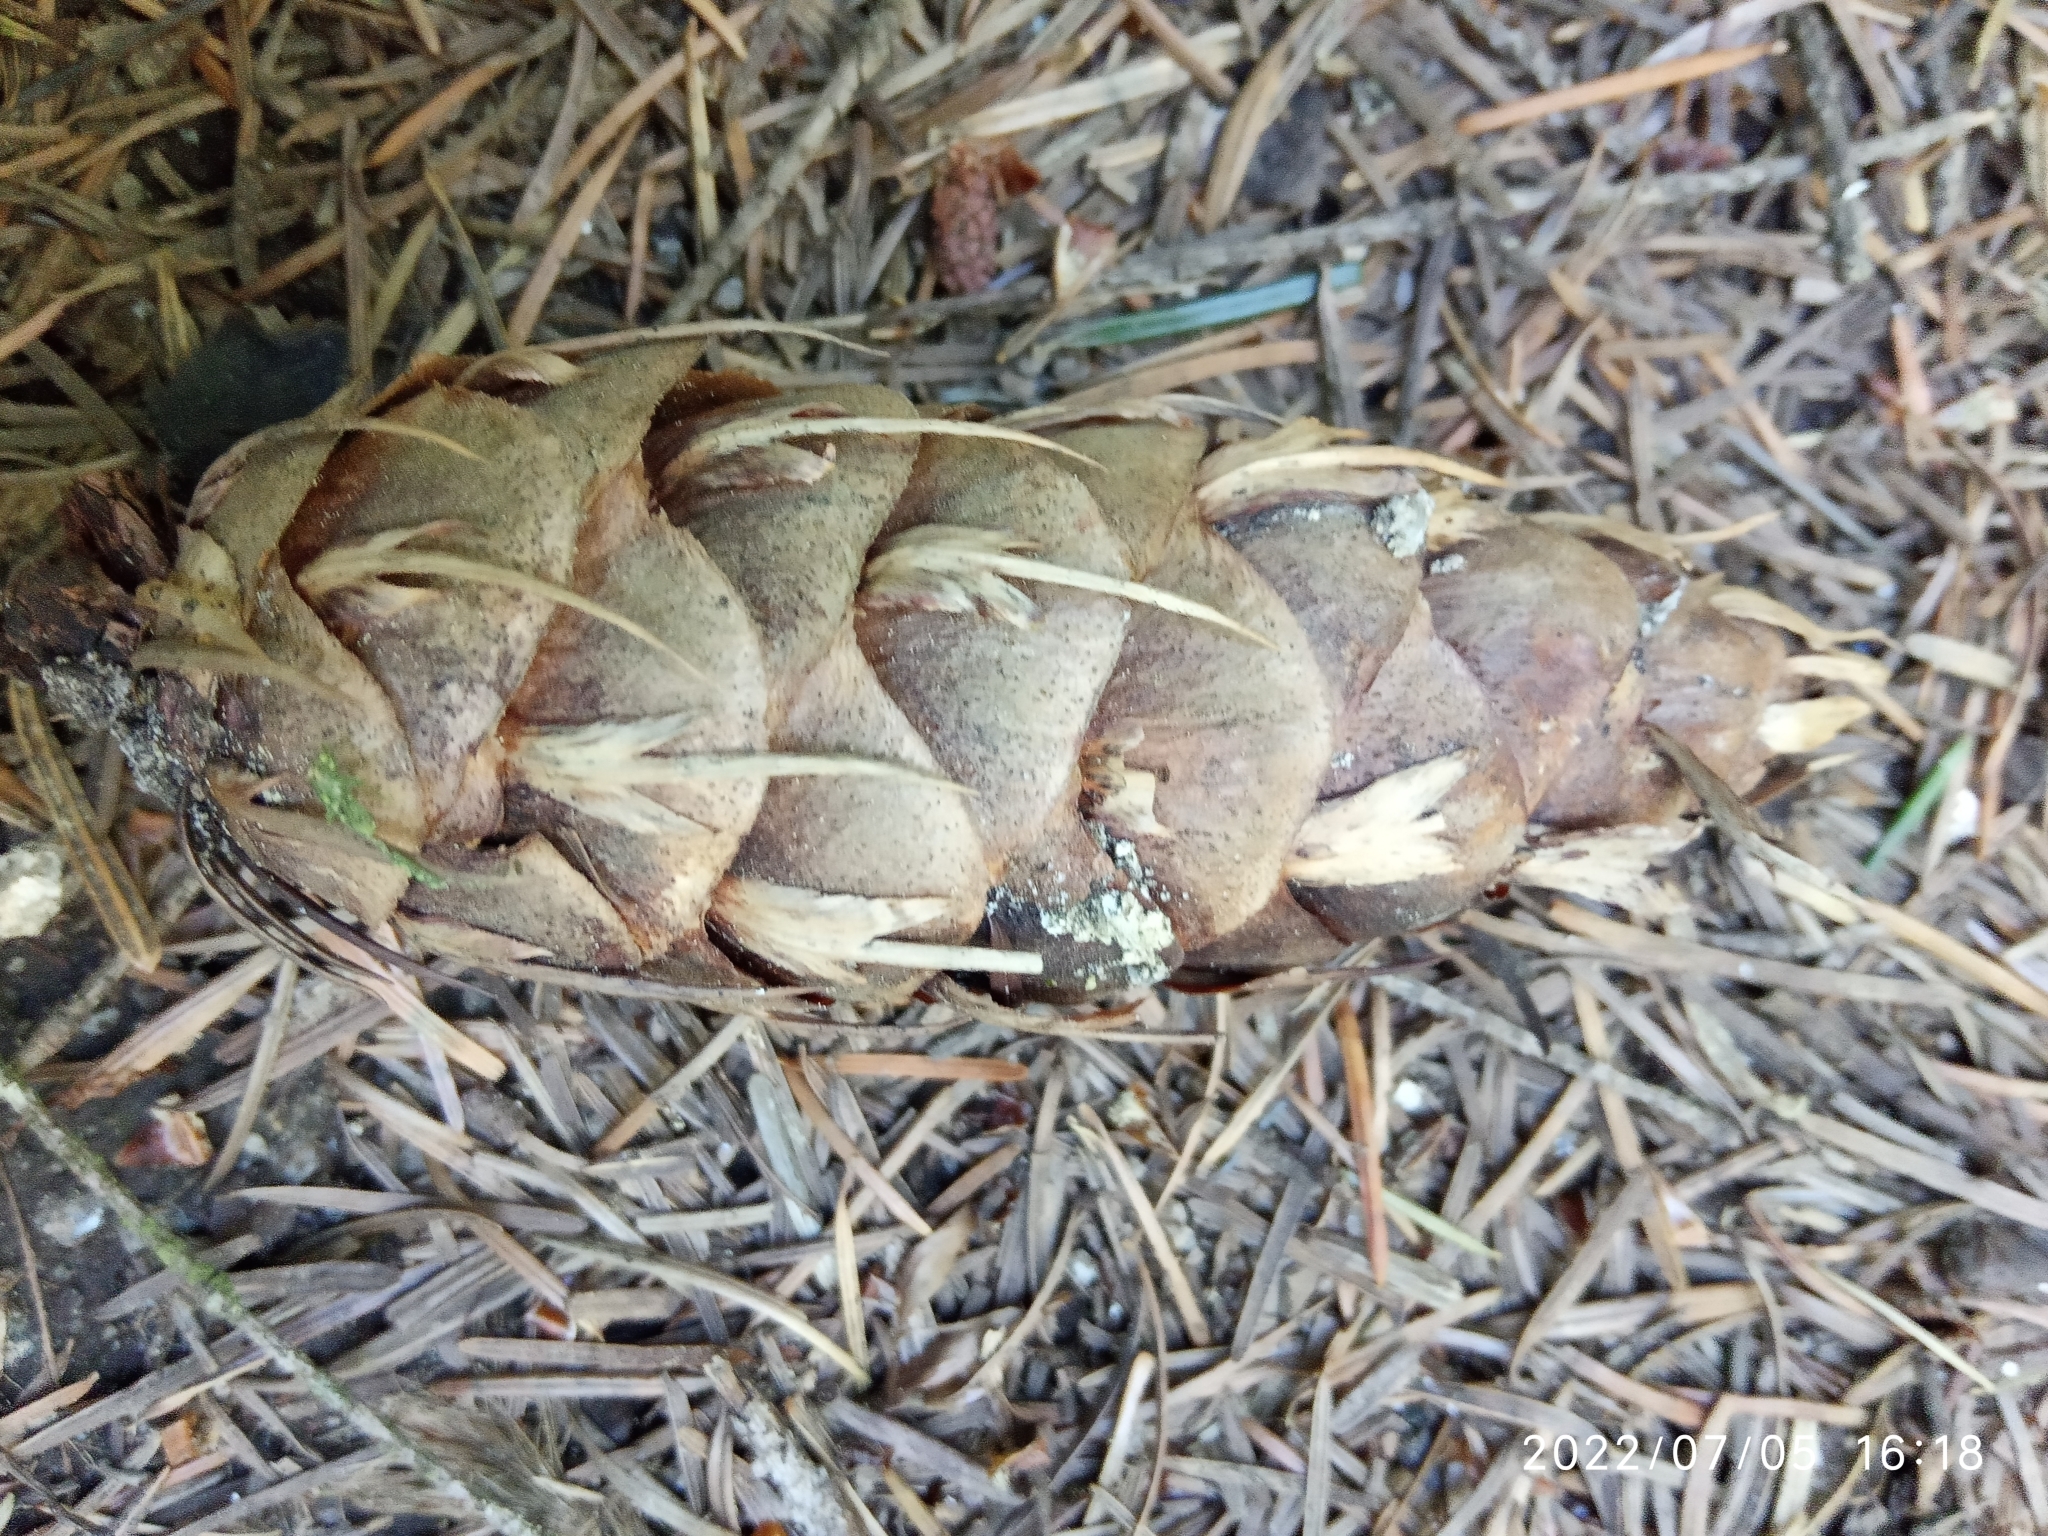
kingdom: Plantae
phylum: Tracheophyta
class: Pinopsida
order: Pinales
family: Pinaceae
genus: Pseudotsuga
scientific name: Pseudotsuga menziesii
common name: Douglas fir
